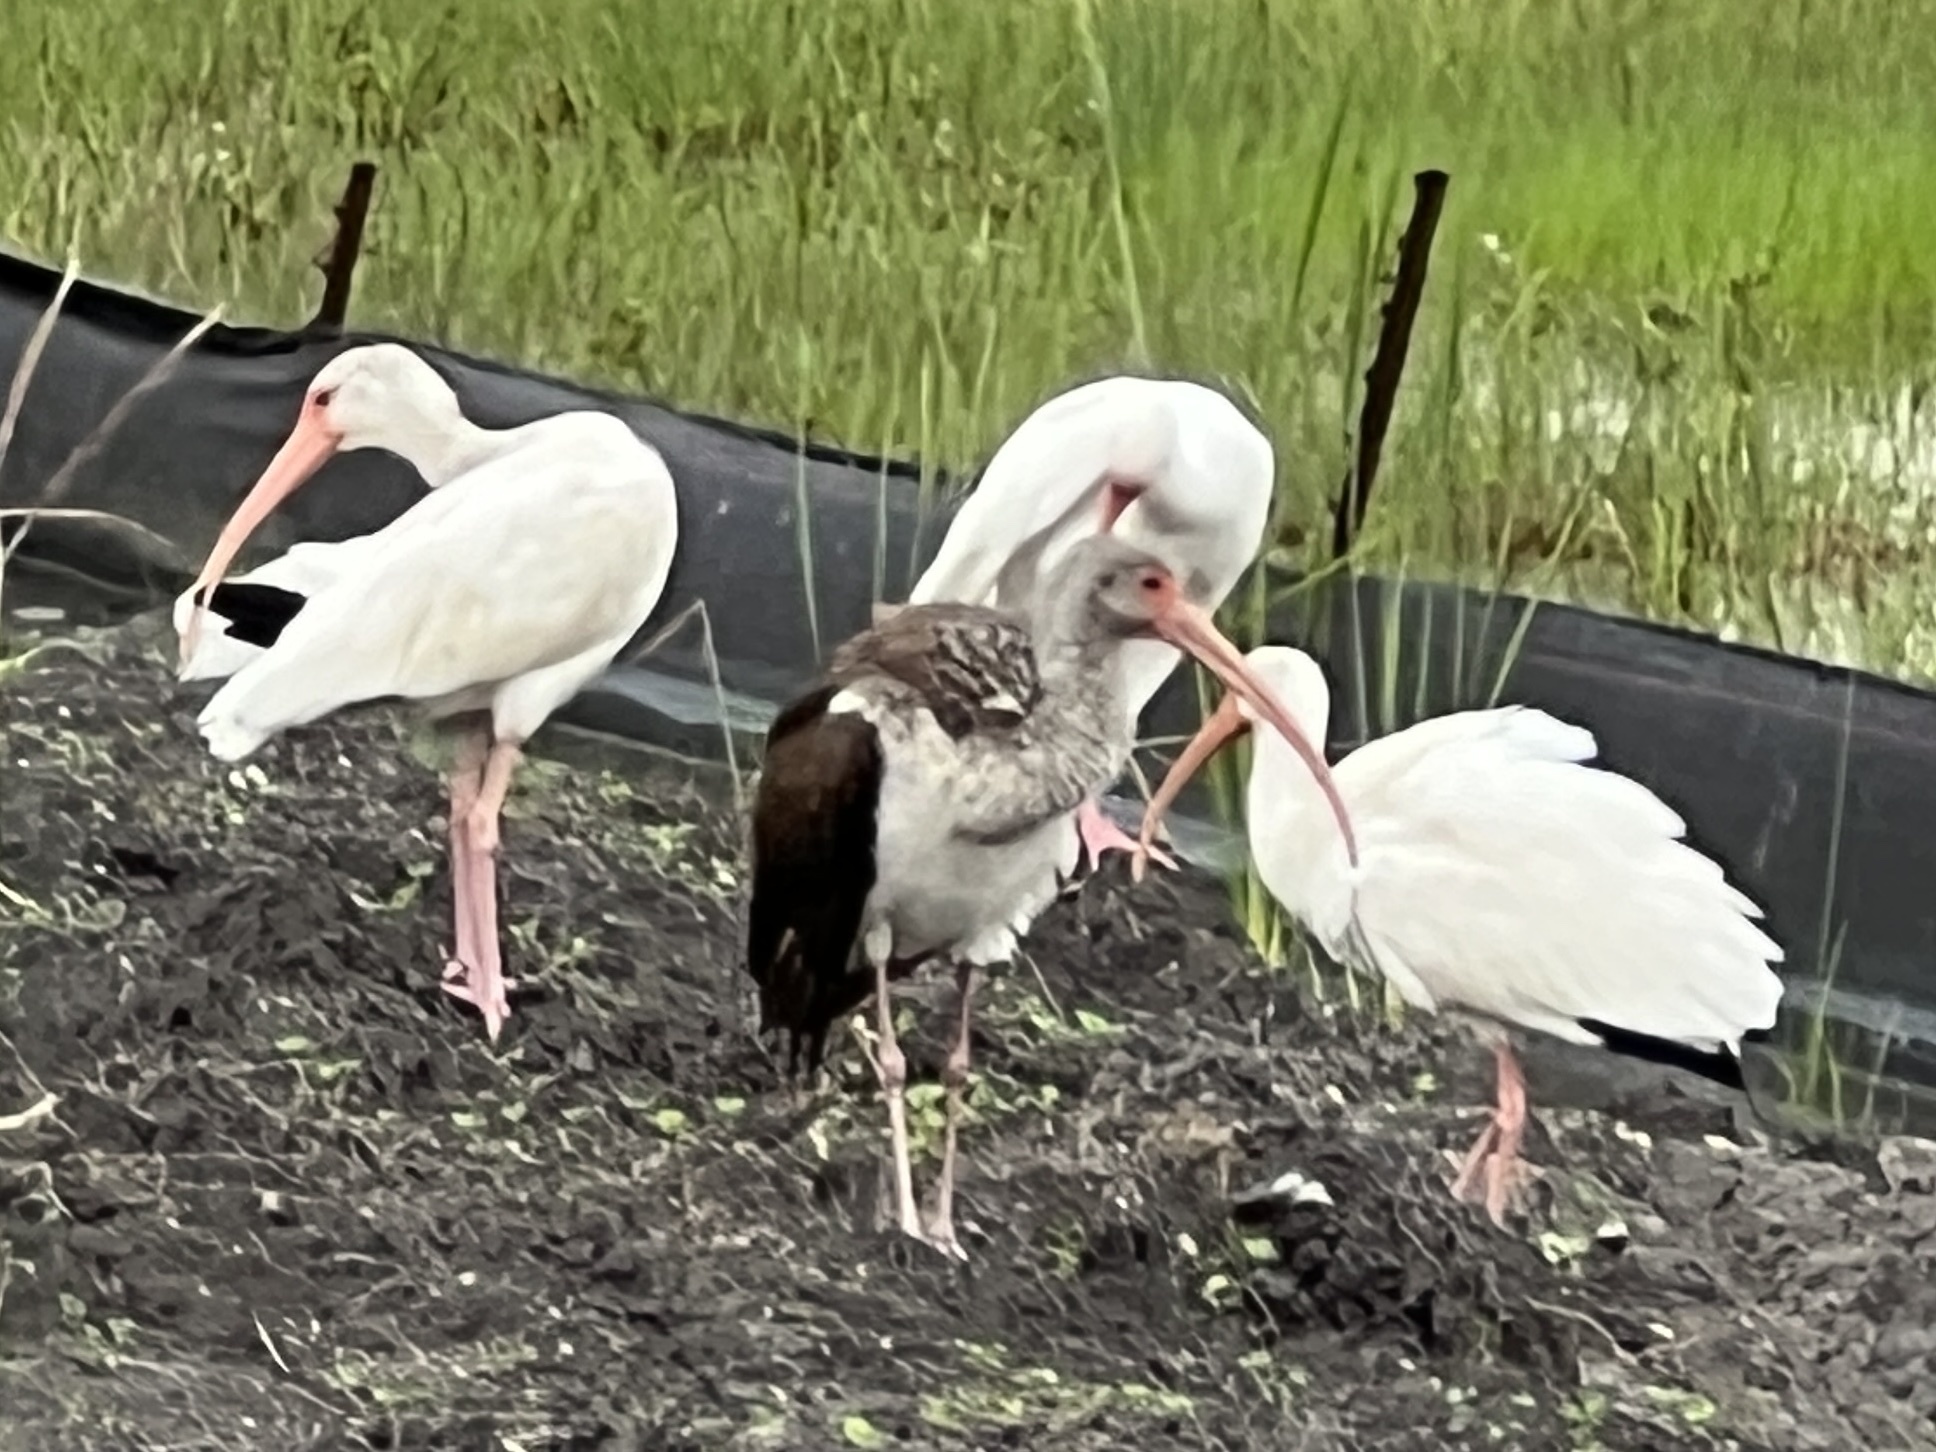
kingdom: Animalia
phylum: Chordata
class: Aves
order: Pelecaniformes
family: Threskiornithidae
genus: Eudocimus
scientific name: Eudocimus albus
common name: White ibis
